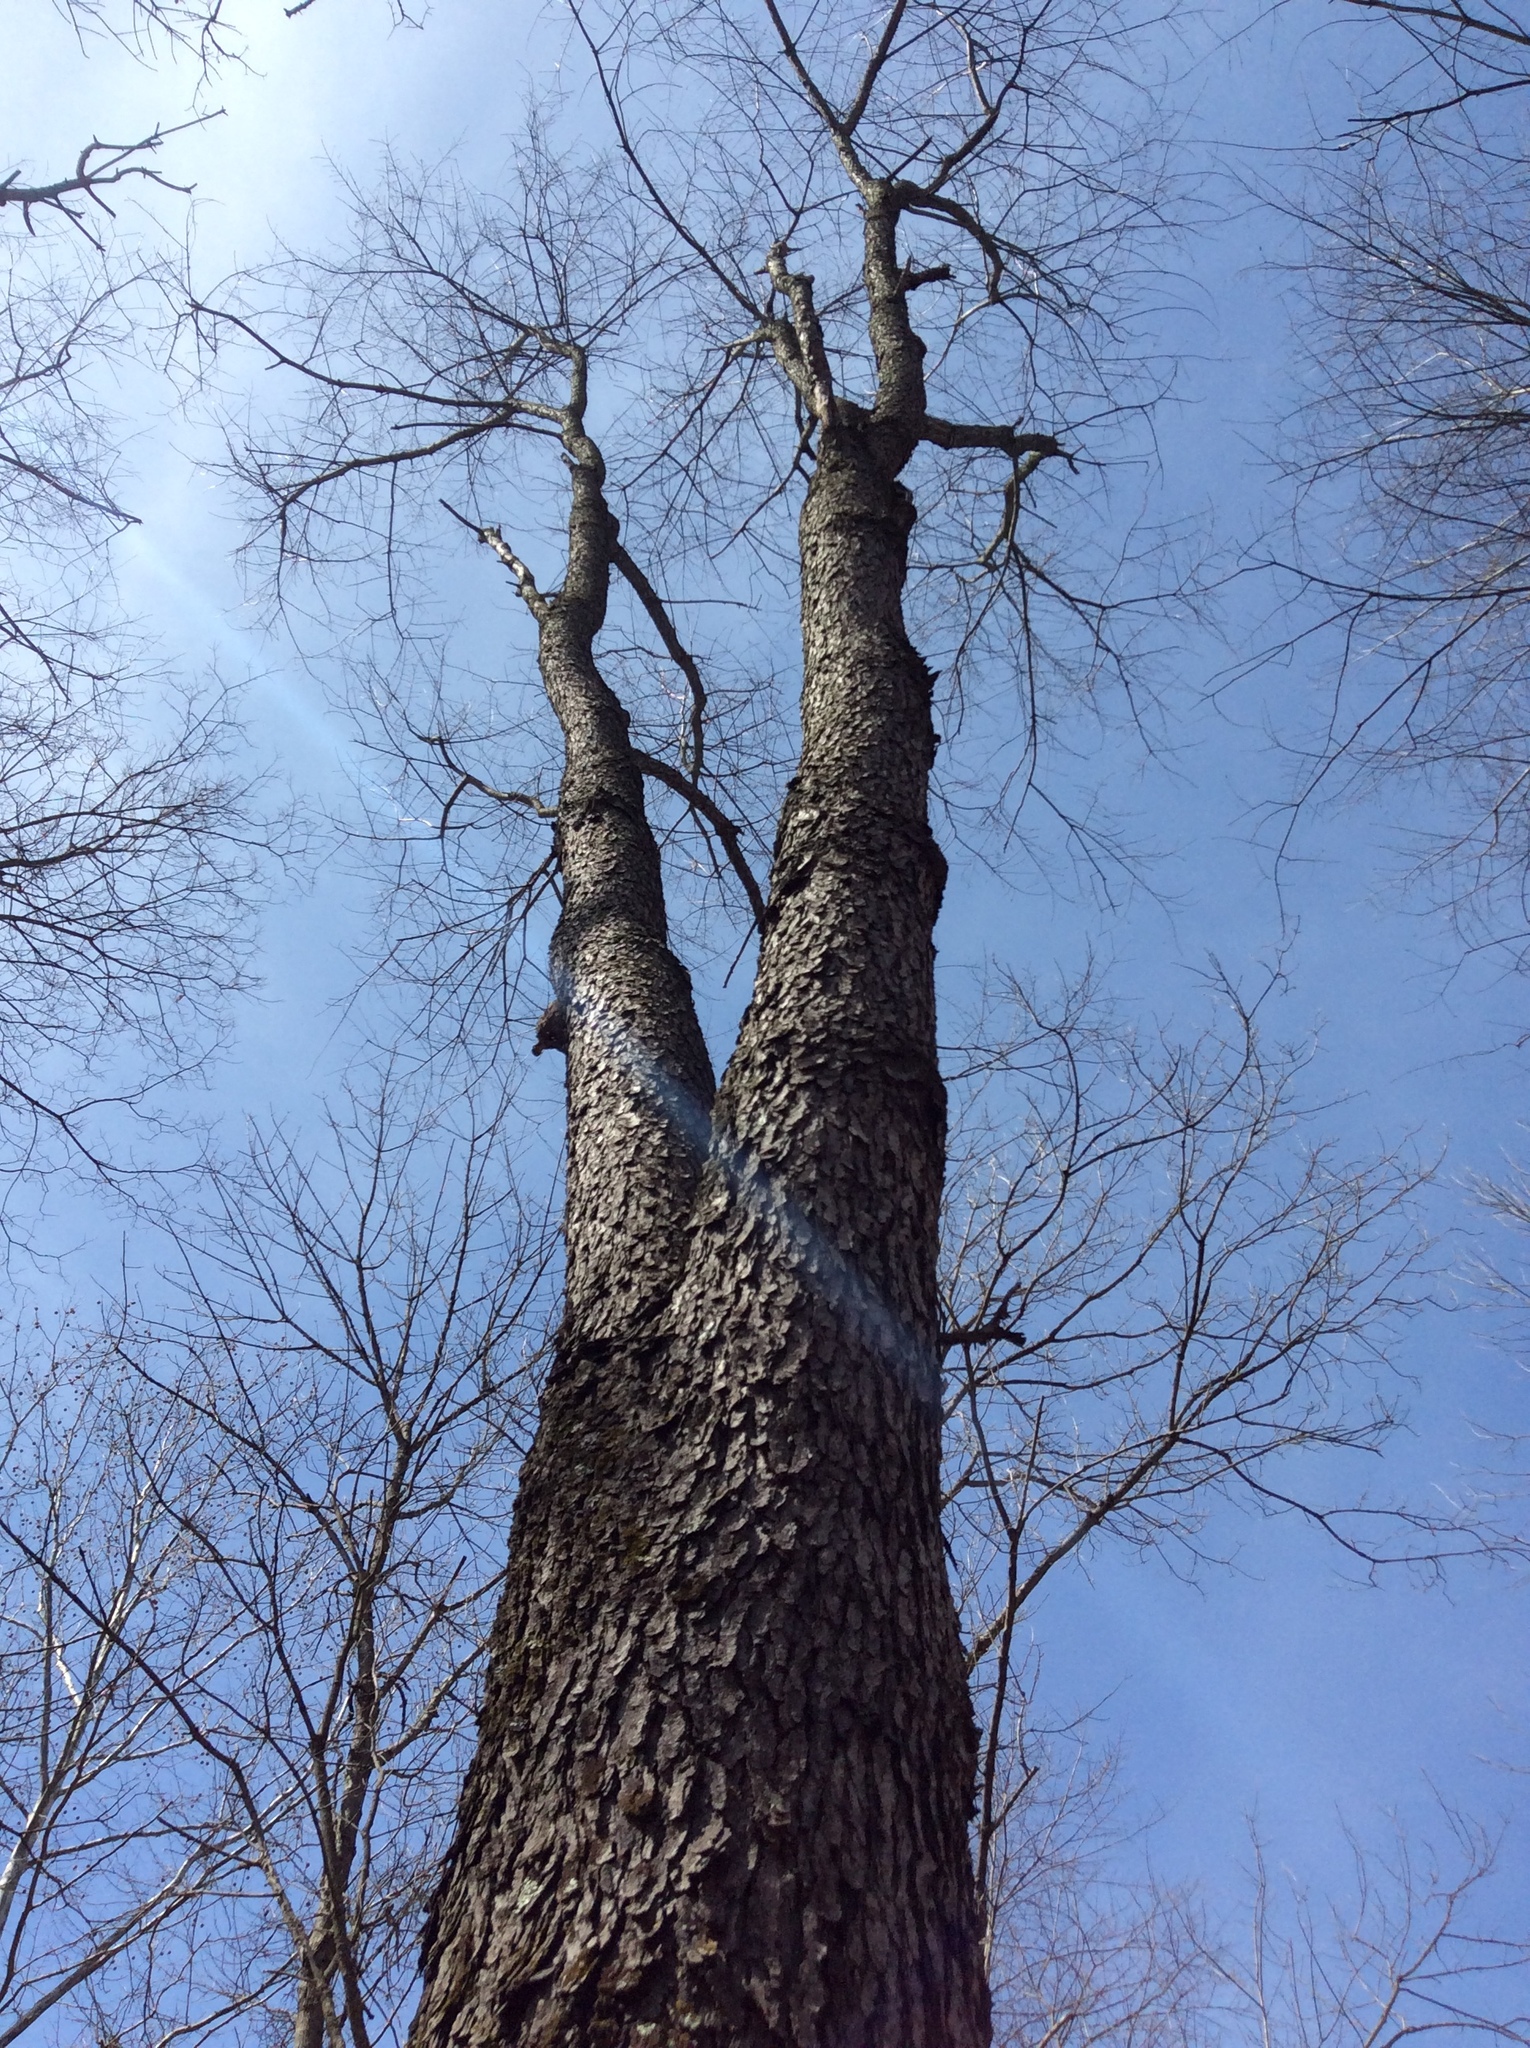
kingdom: Plantae
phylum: Tracheophyta
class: Magnoliopsida
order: Rosales
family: Rosaceae
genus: Prunus
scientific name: Prunus serotina
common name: Black cherry
